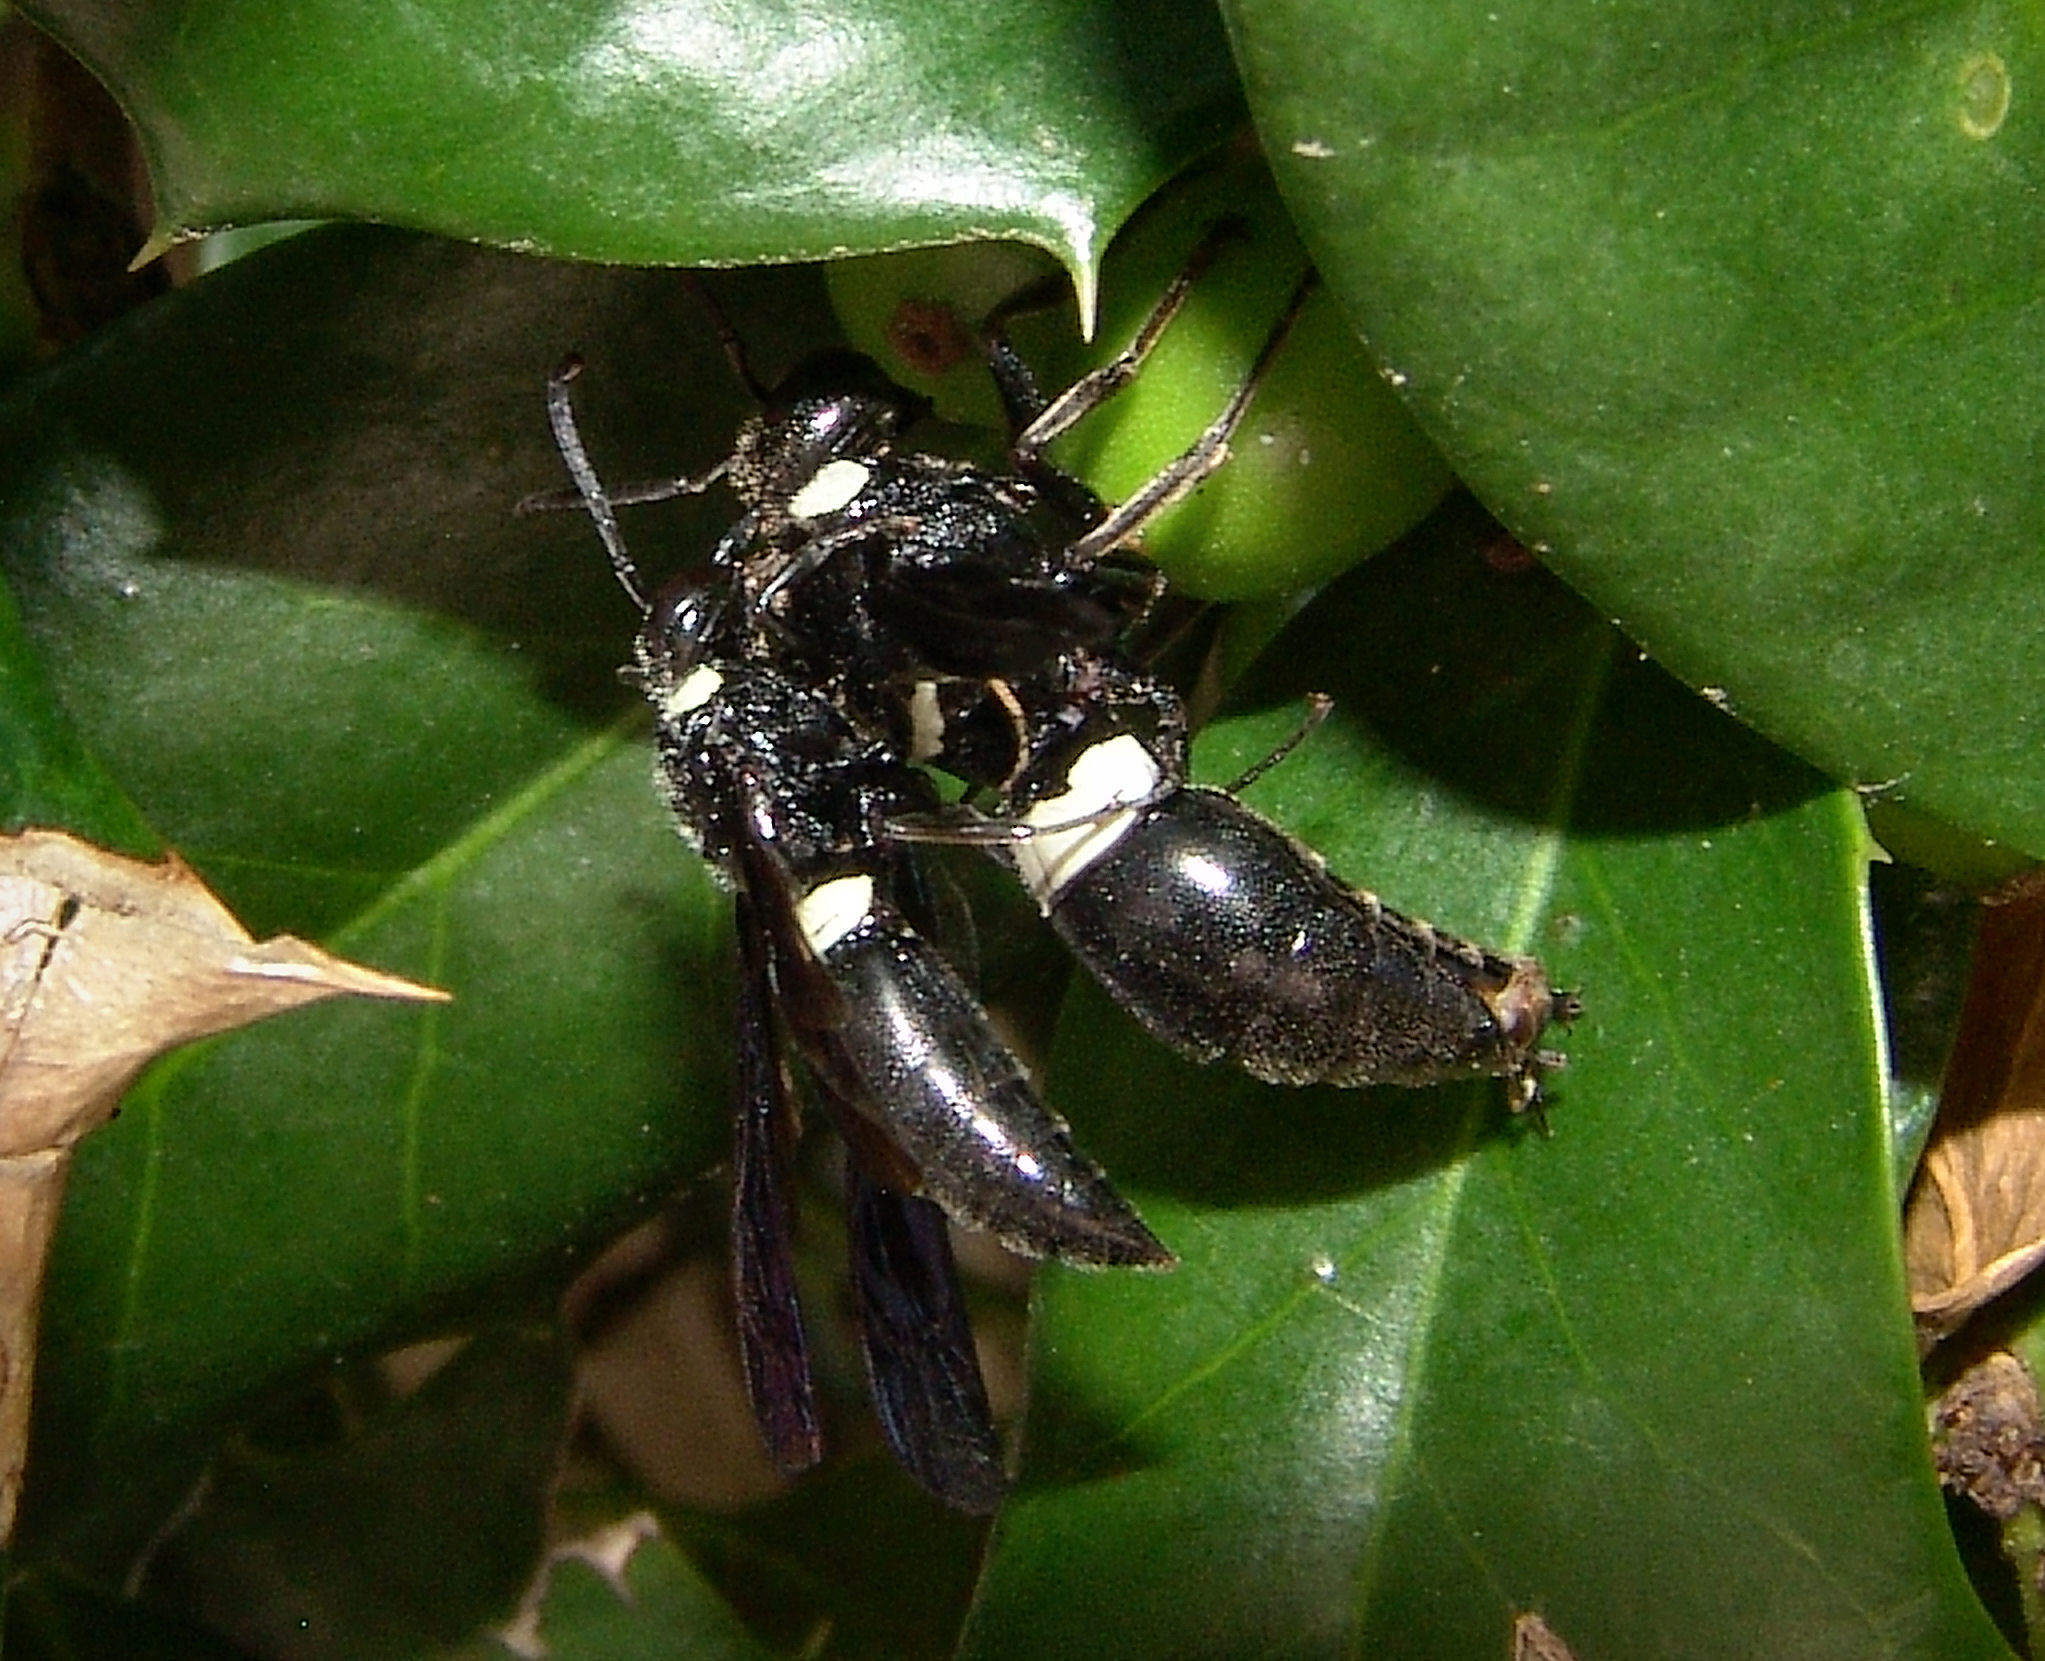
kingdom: Animalia
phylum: Arthropoda
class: Insecta
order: Hymenoptera
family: Eumenidae
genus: Monobia
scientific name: Monobia quadridens
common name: Four-toothed mason wasp
